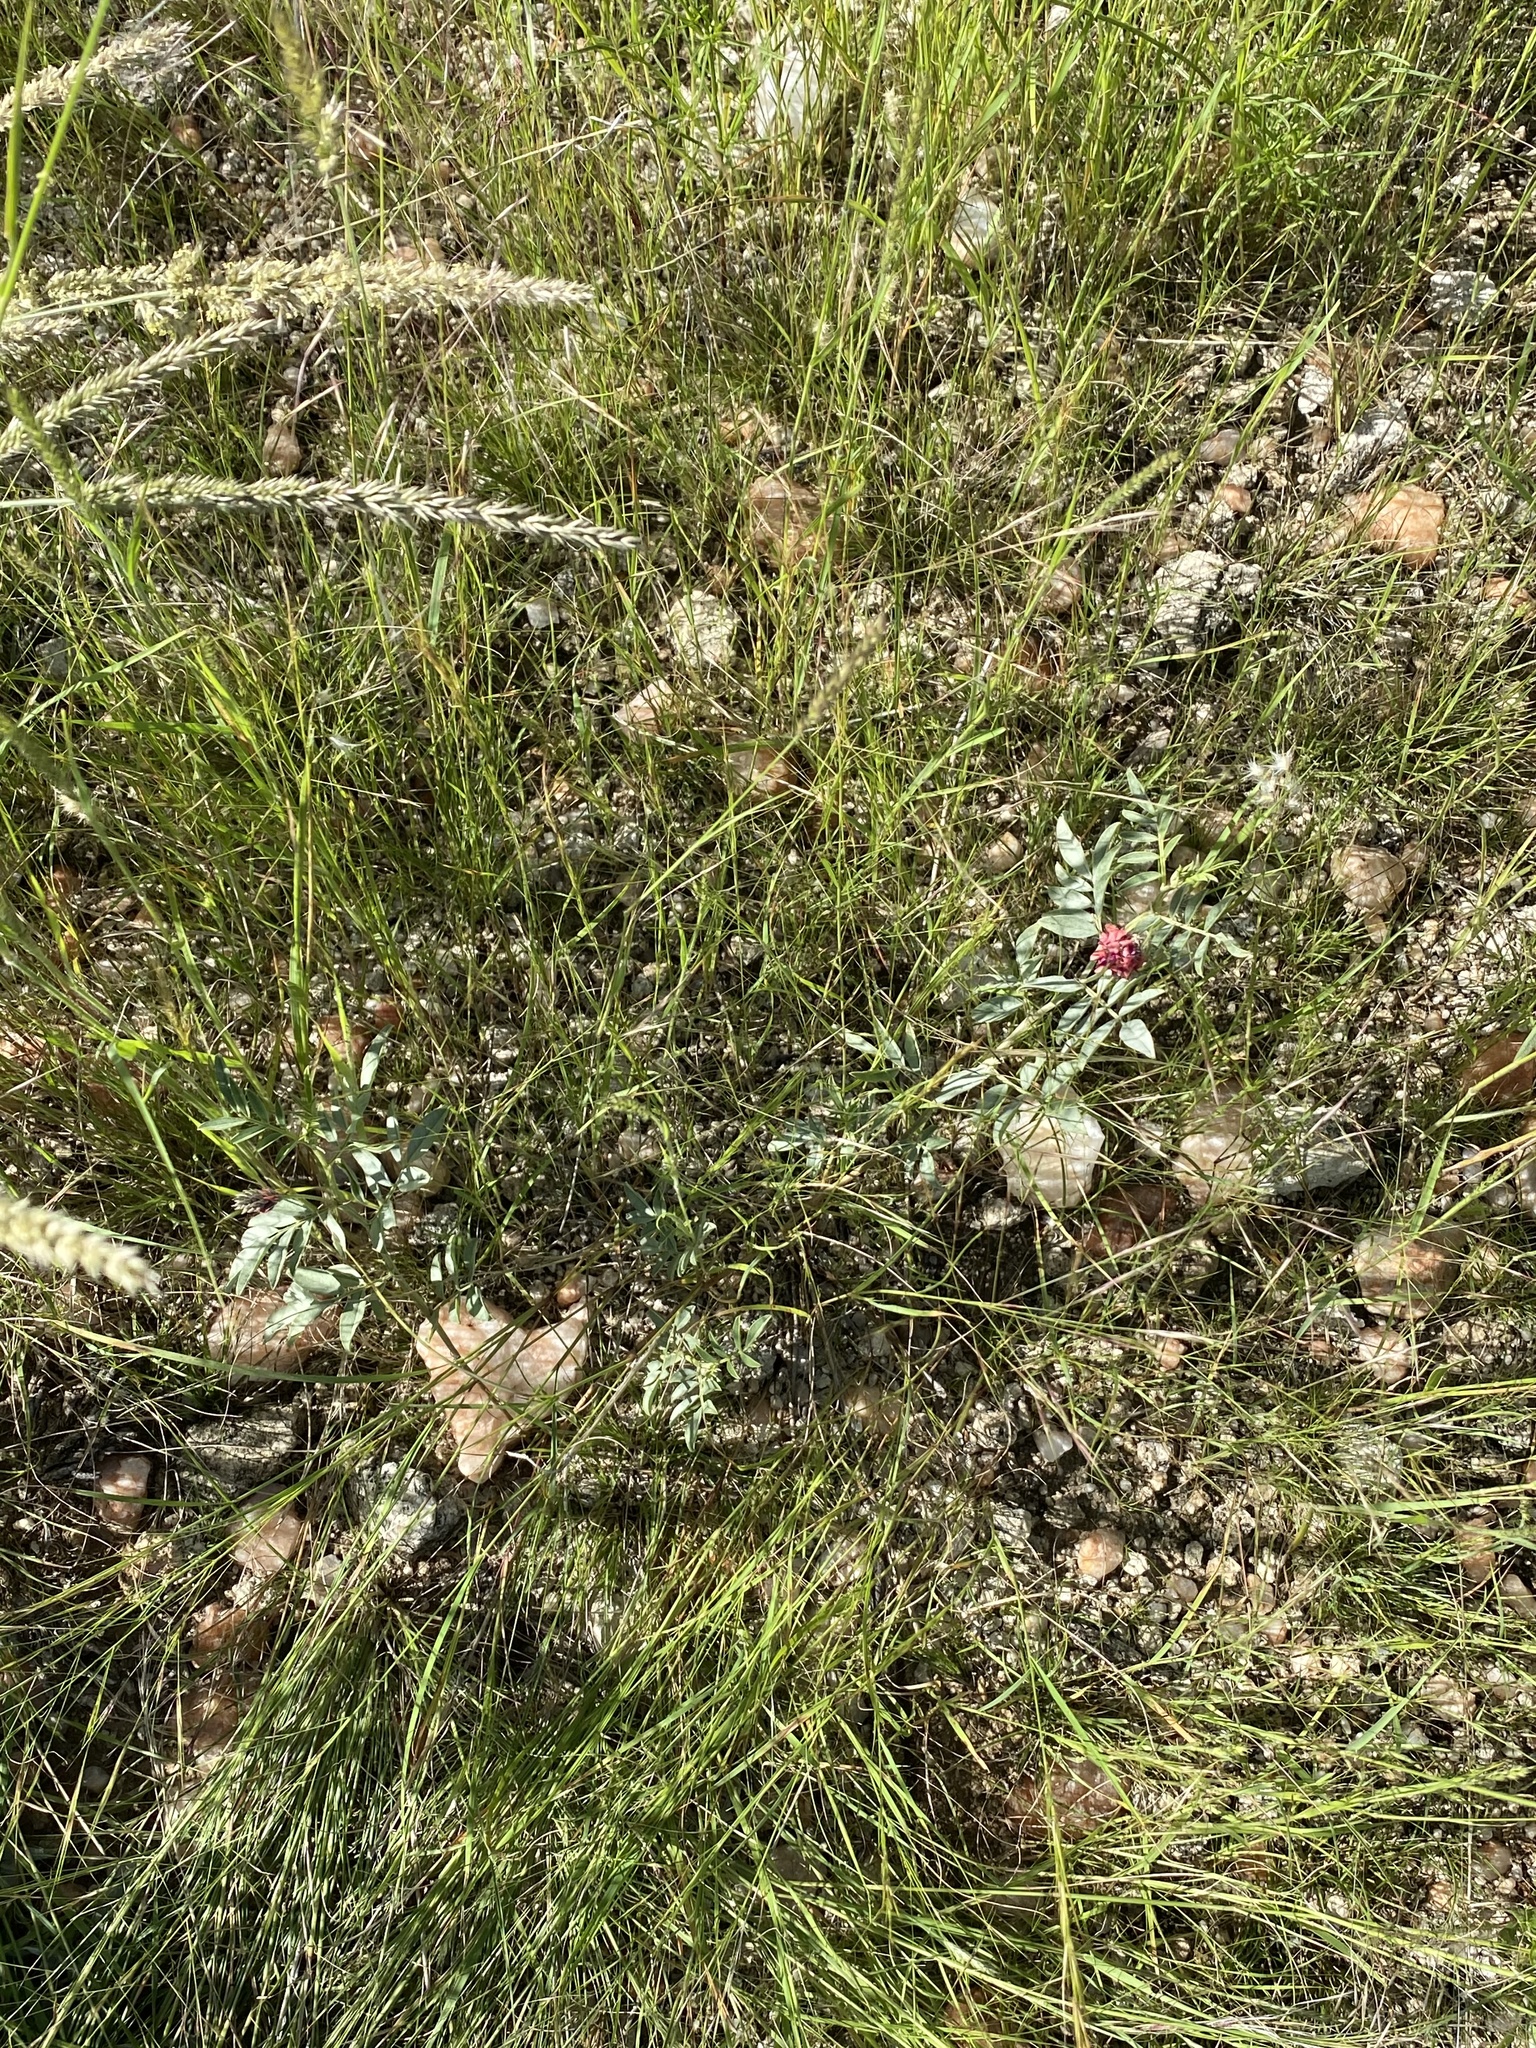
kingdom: Plantae
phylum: Tracheophyta
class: Magnoliopsida
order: Fabales
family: Fabaceae
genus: Indigofera
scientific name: Indigofera auricoma
